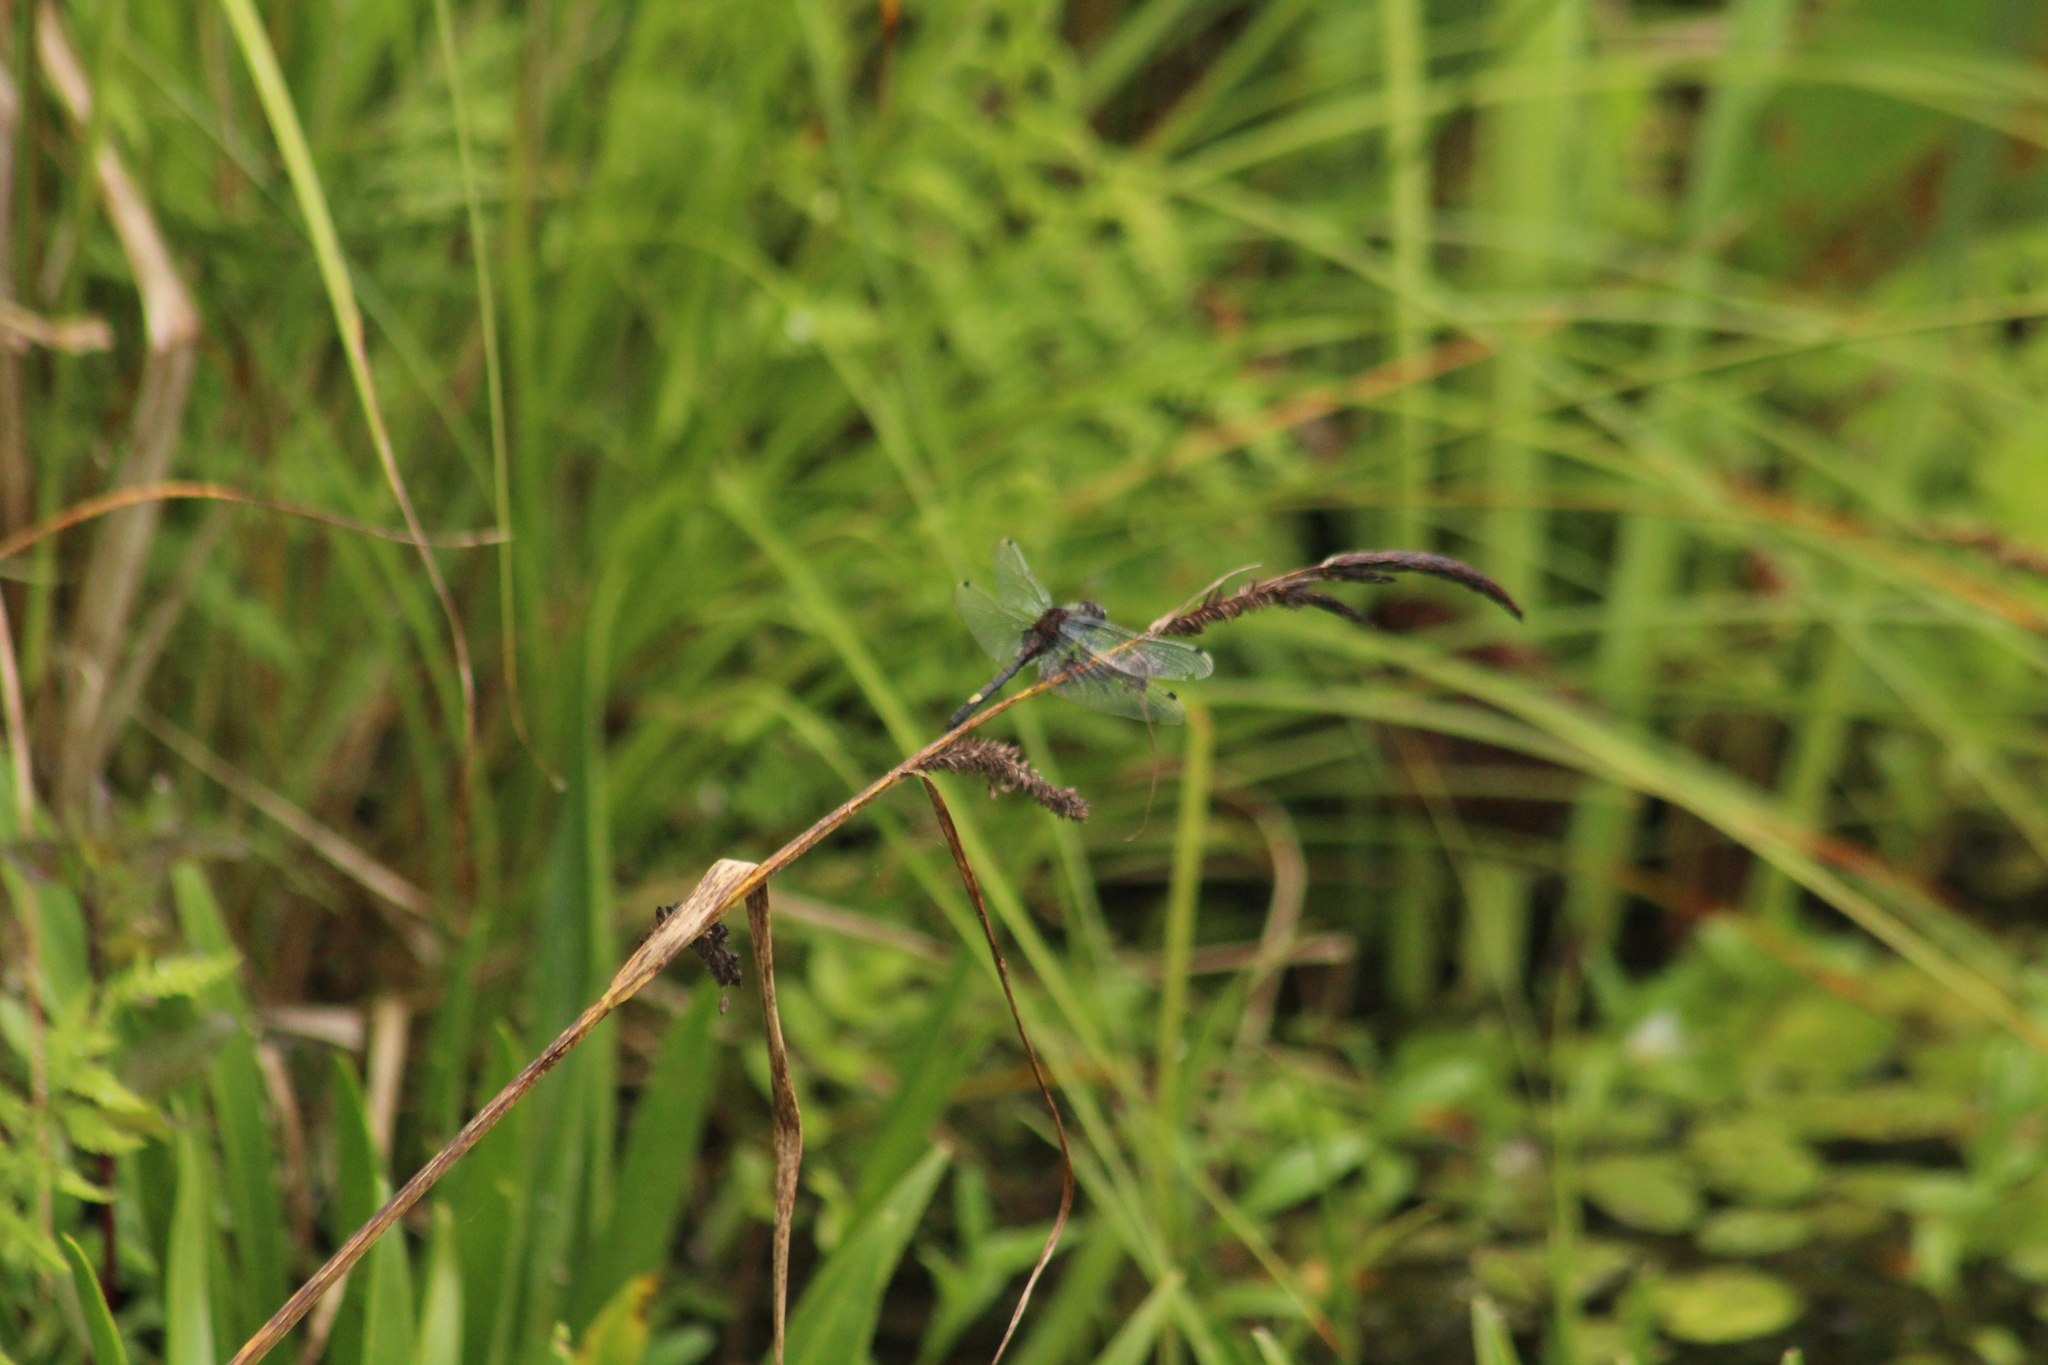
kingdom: Animalia
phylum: Arthropoda
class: Insecta
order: Odonata
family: Libellulidae
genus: Leucorrhinia
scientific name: Leucorrhinia pectoralis
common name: Yellow-spotted whiteface
